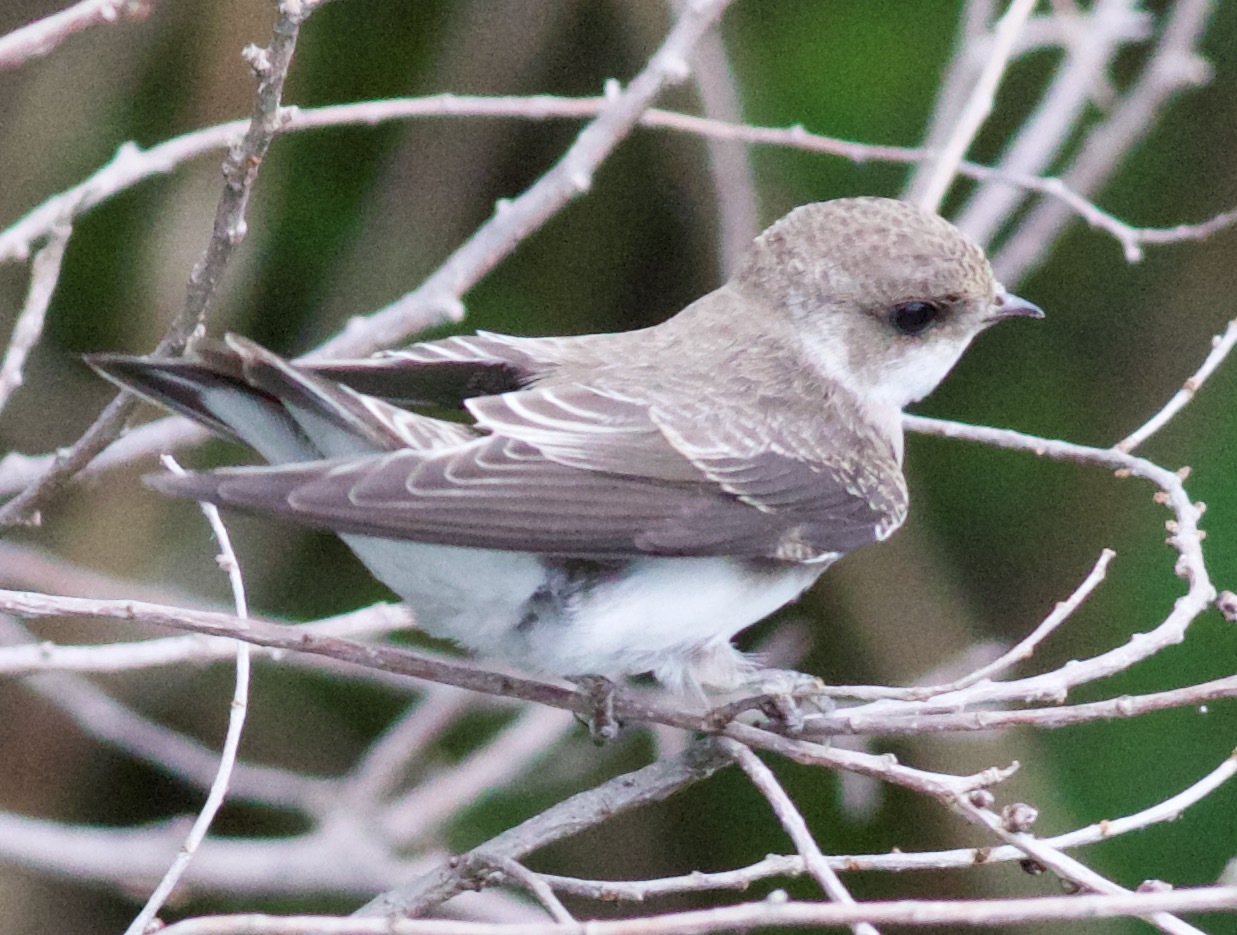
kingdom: Animalia
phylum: Chordata
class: Aves
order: Passeriformes
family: Hirundinidae
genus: Riparia
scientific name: Riparia riparia
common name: Sand martin
